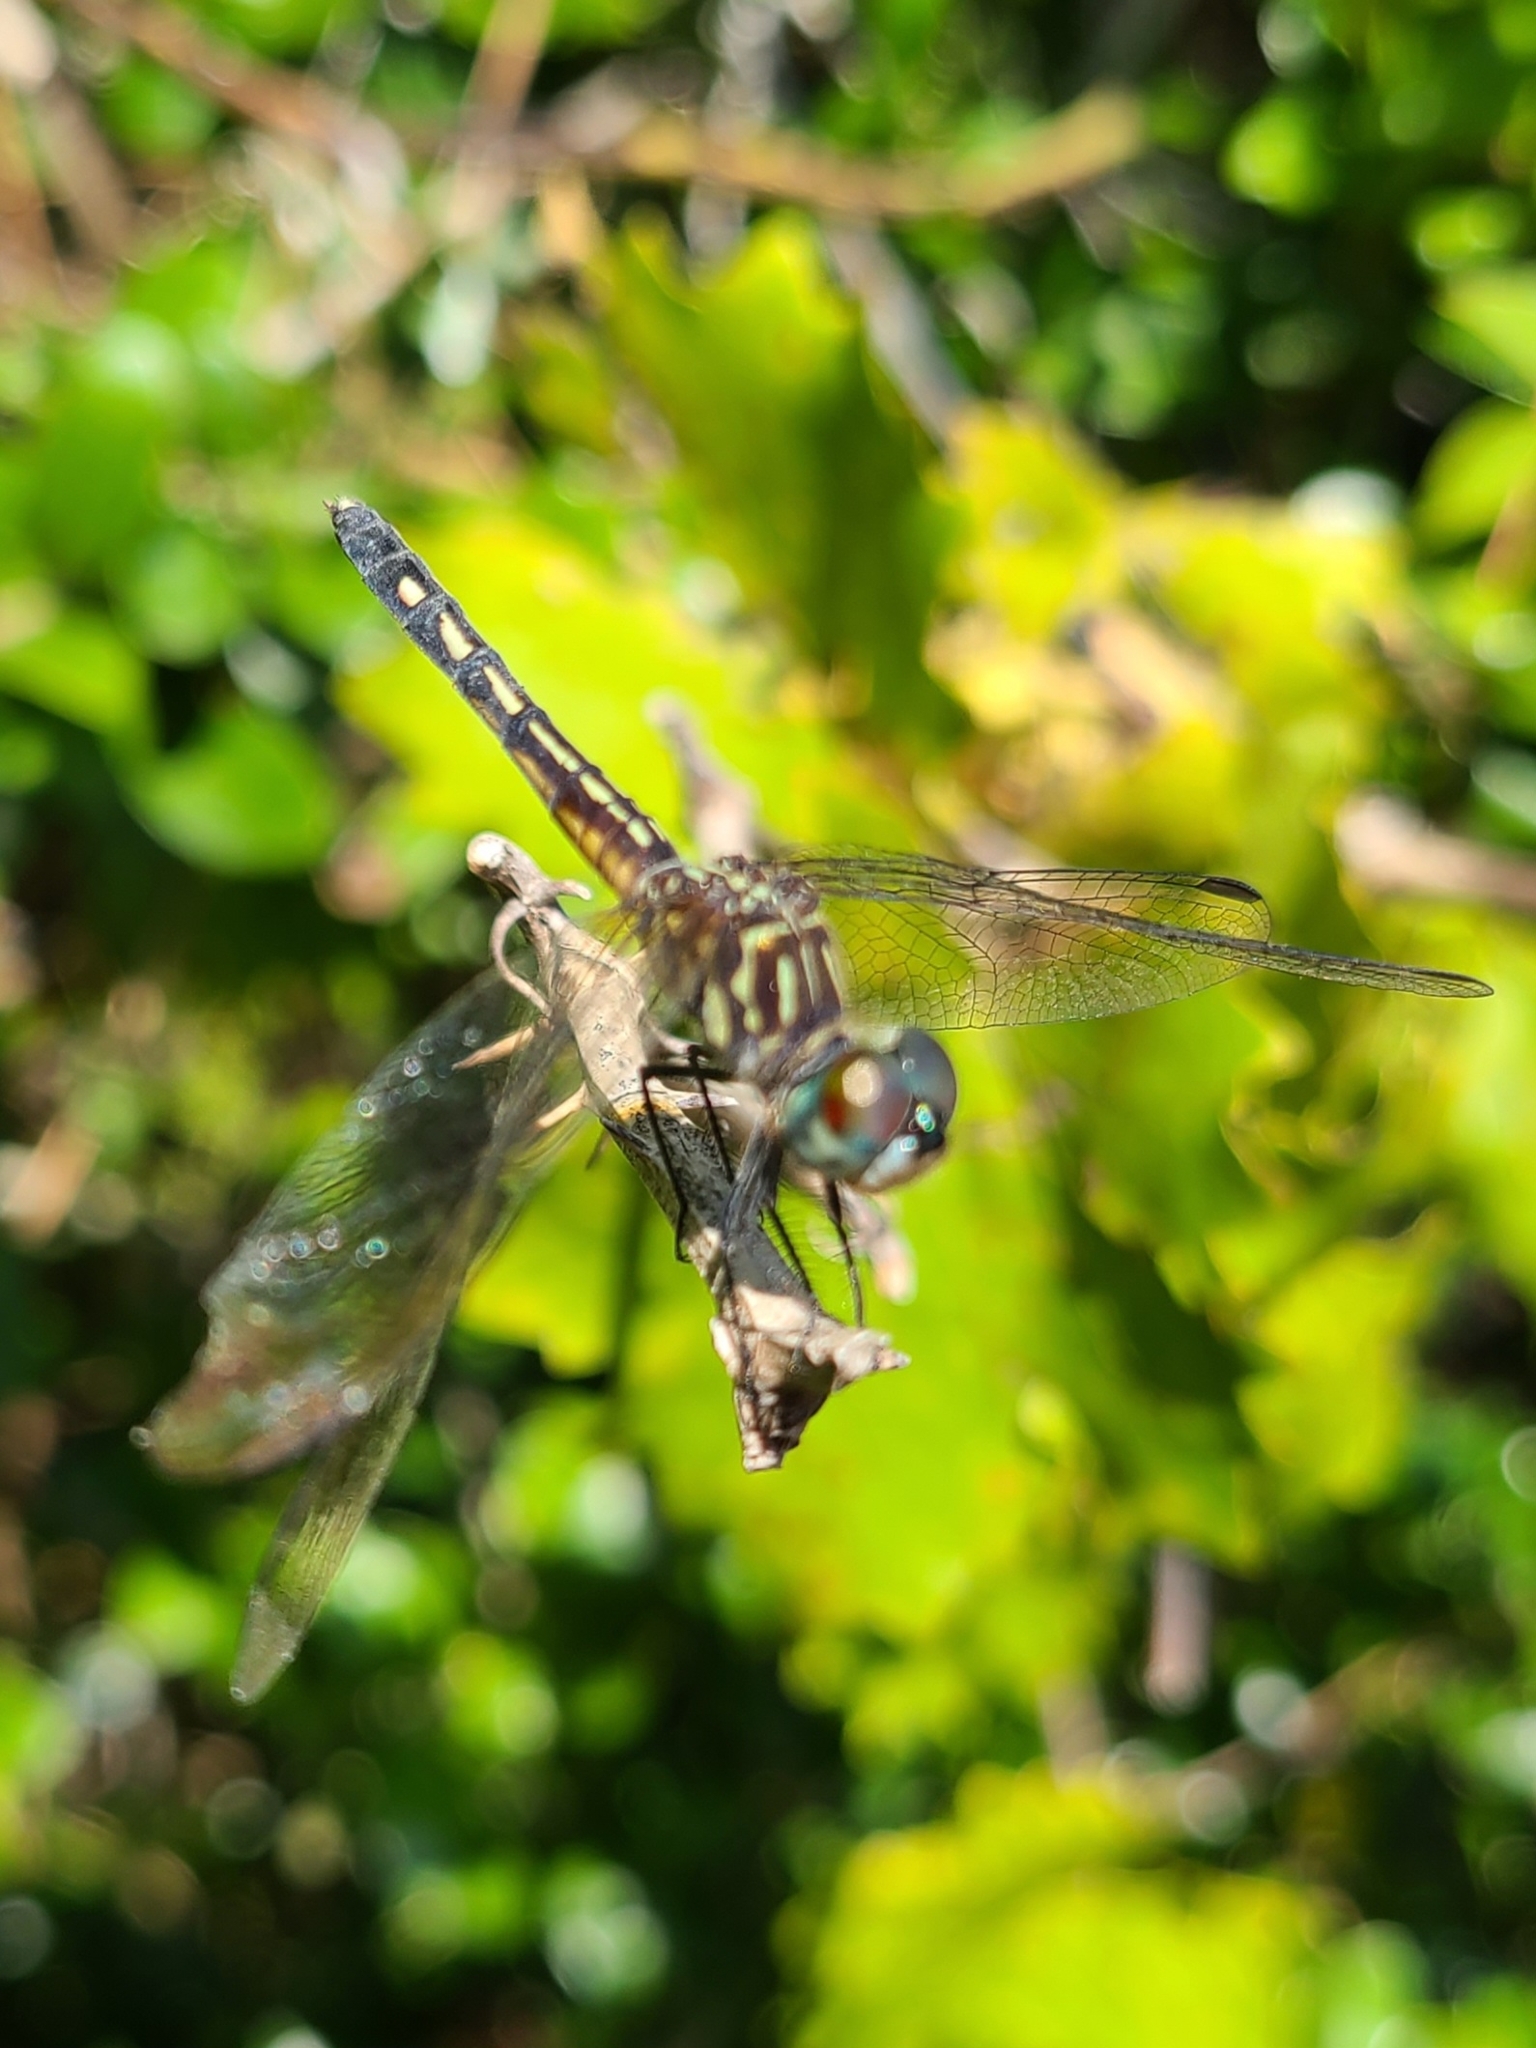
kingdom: Animalia
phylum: Arthropoda
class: Insecta
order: Odonata
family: Libellulidae
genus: Pachydiplax
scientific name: Pachydiplax longipennis
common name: Blue dasher
